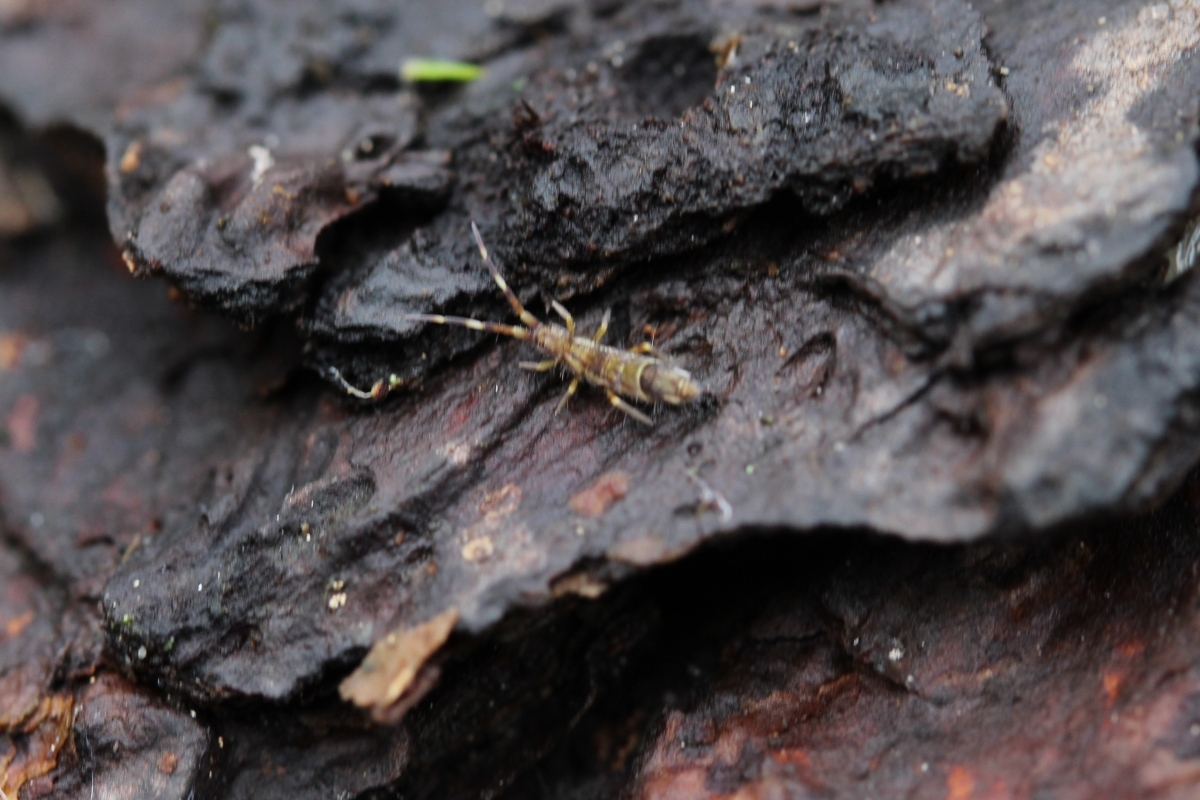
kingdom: Animalia
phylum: Arthropoda
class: Collembola
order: Entomobryomorpha
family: Entomobryidae
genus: Entomobrya
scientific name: Entomobrya nivalis
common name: Cosmopolitan springtail
